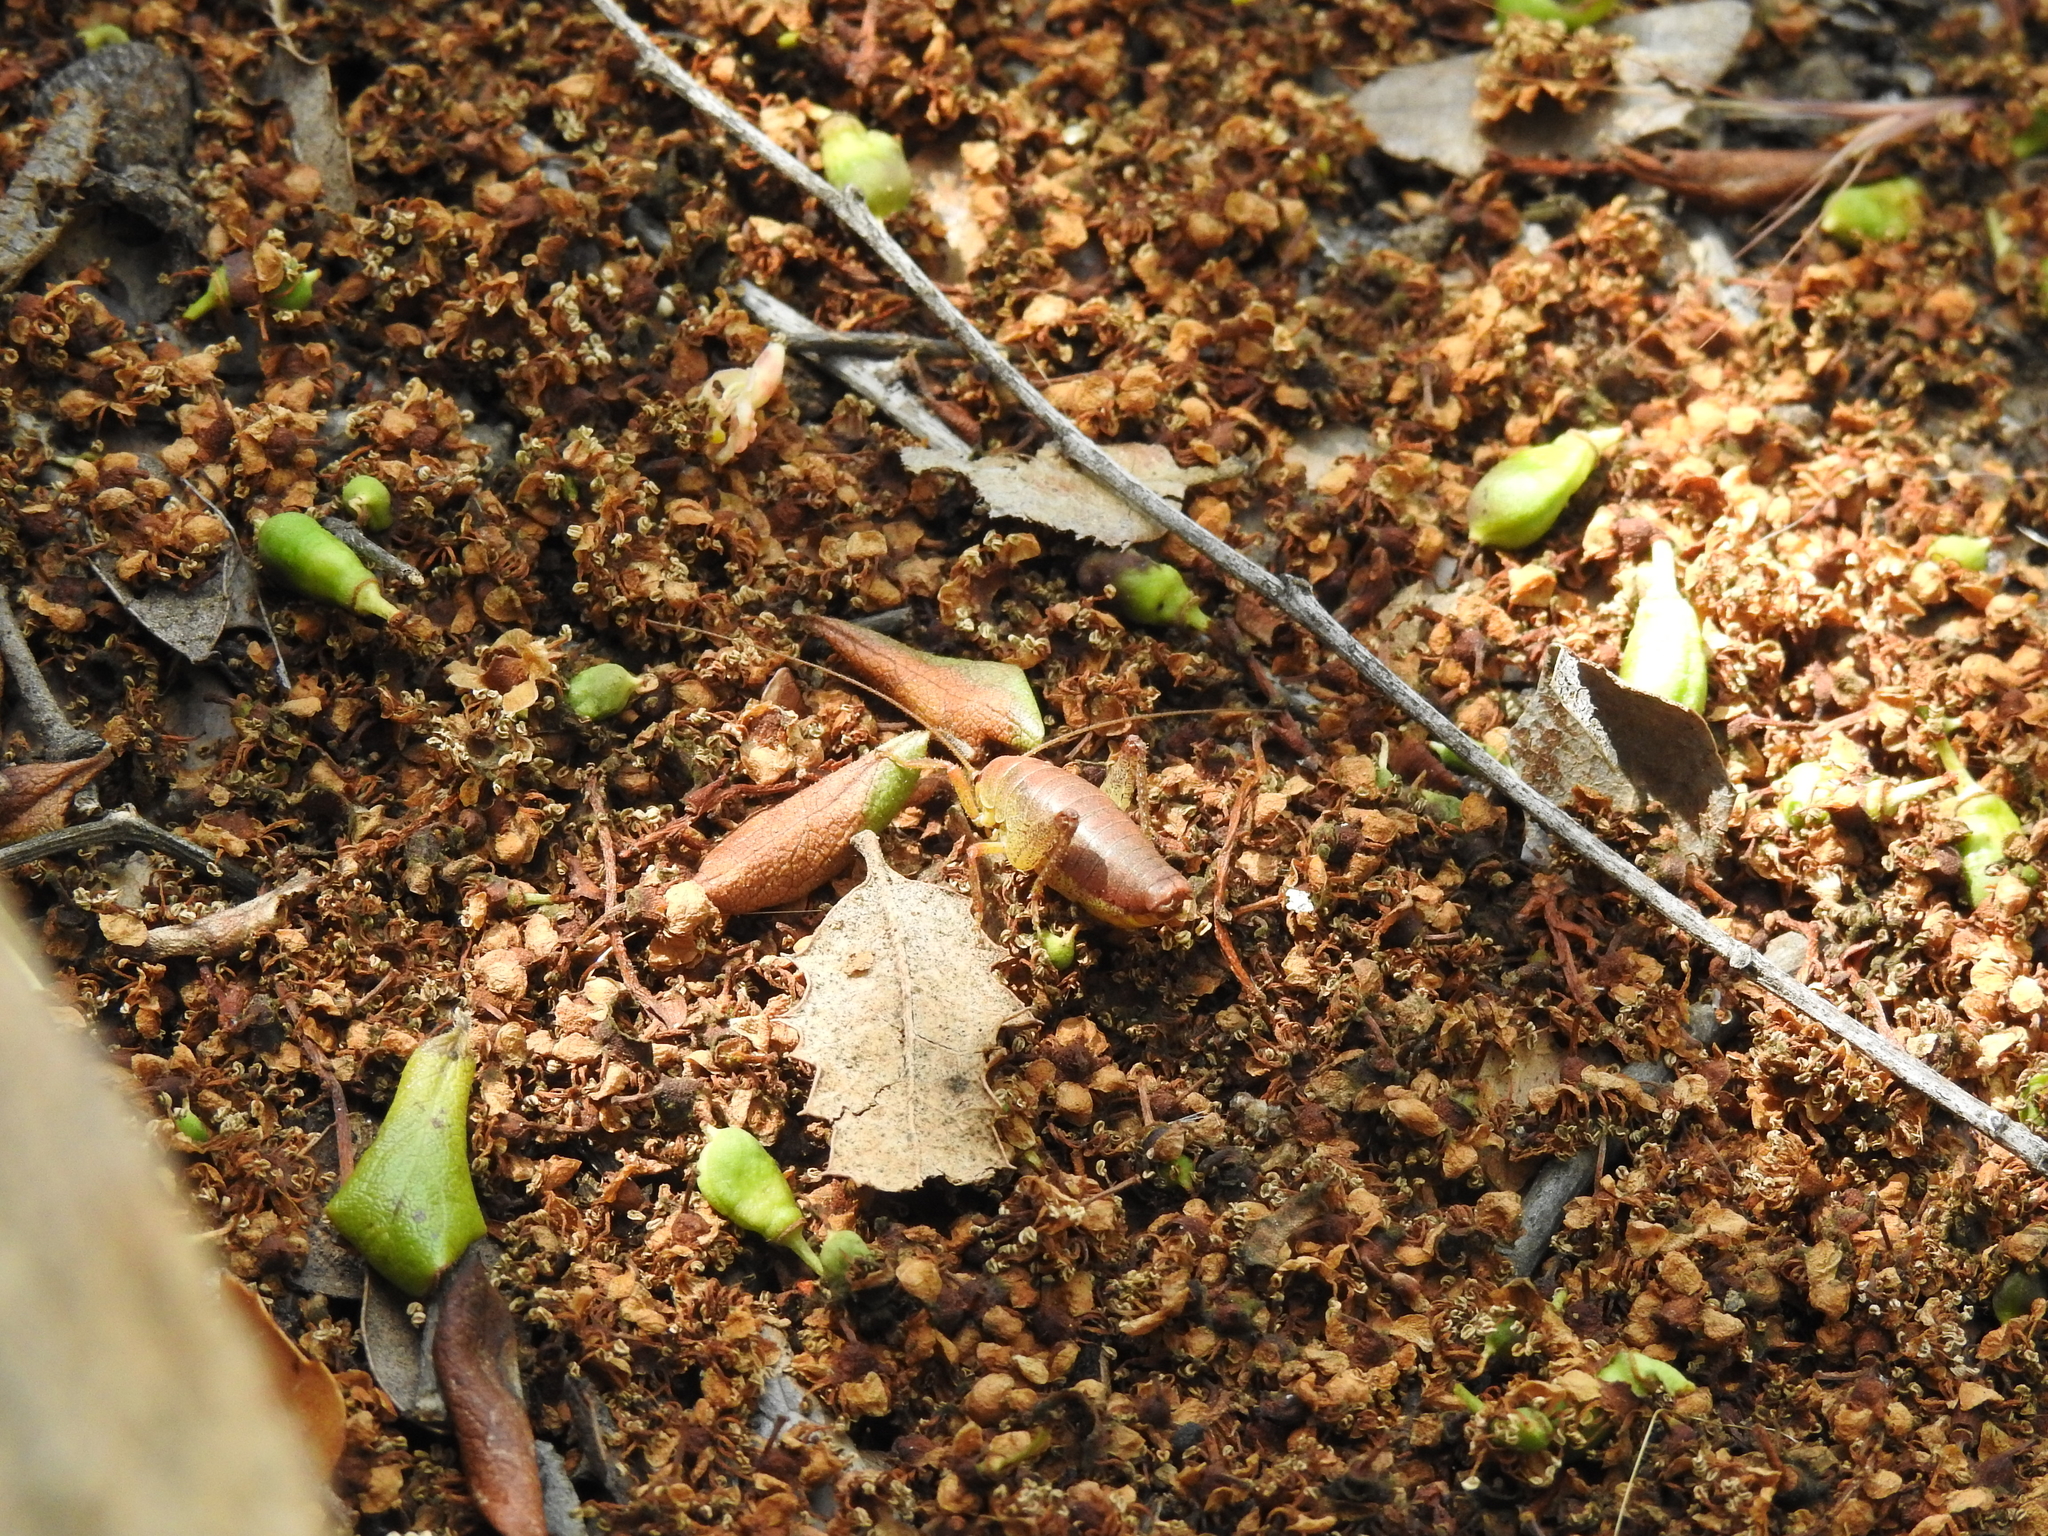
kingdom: Animalia
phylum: Arthropoda
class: Insecta
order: Orthoptera
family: Rhaphidophoridae
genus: Gammarotettix
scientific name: Gammarotettix genitalis
